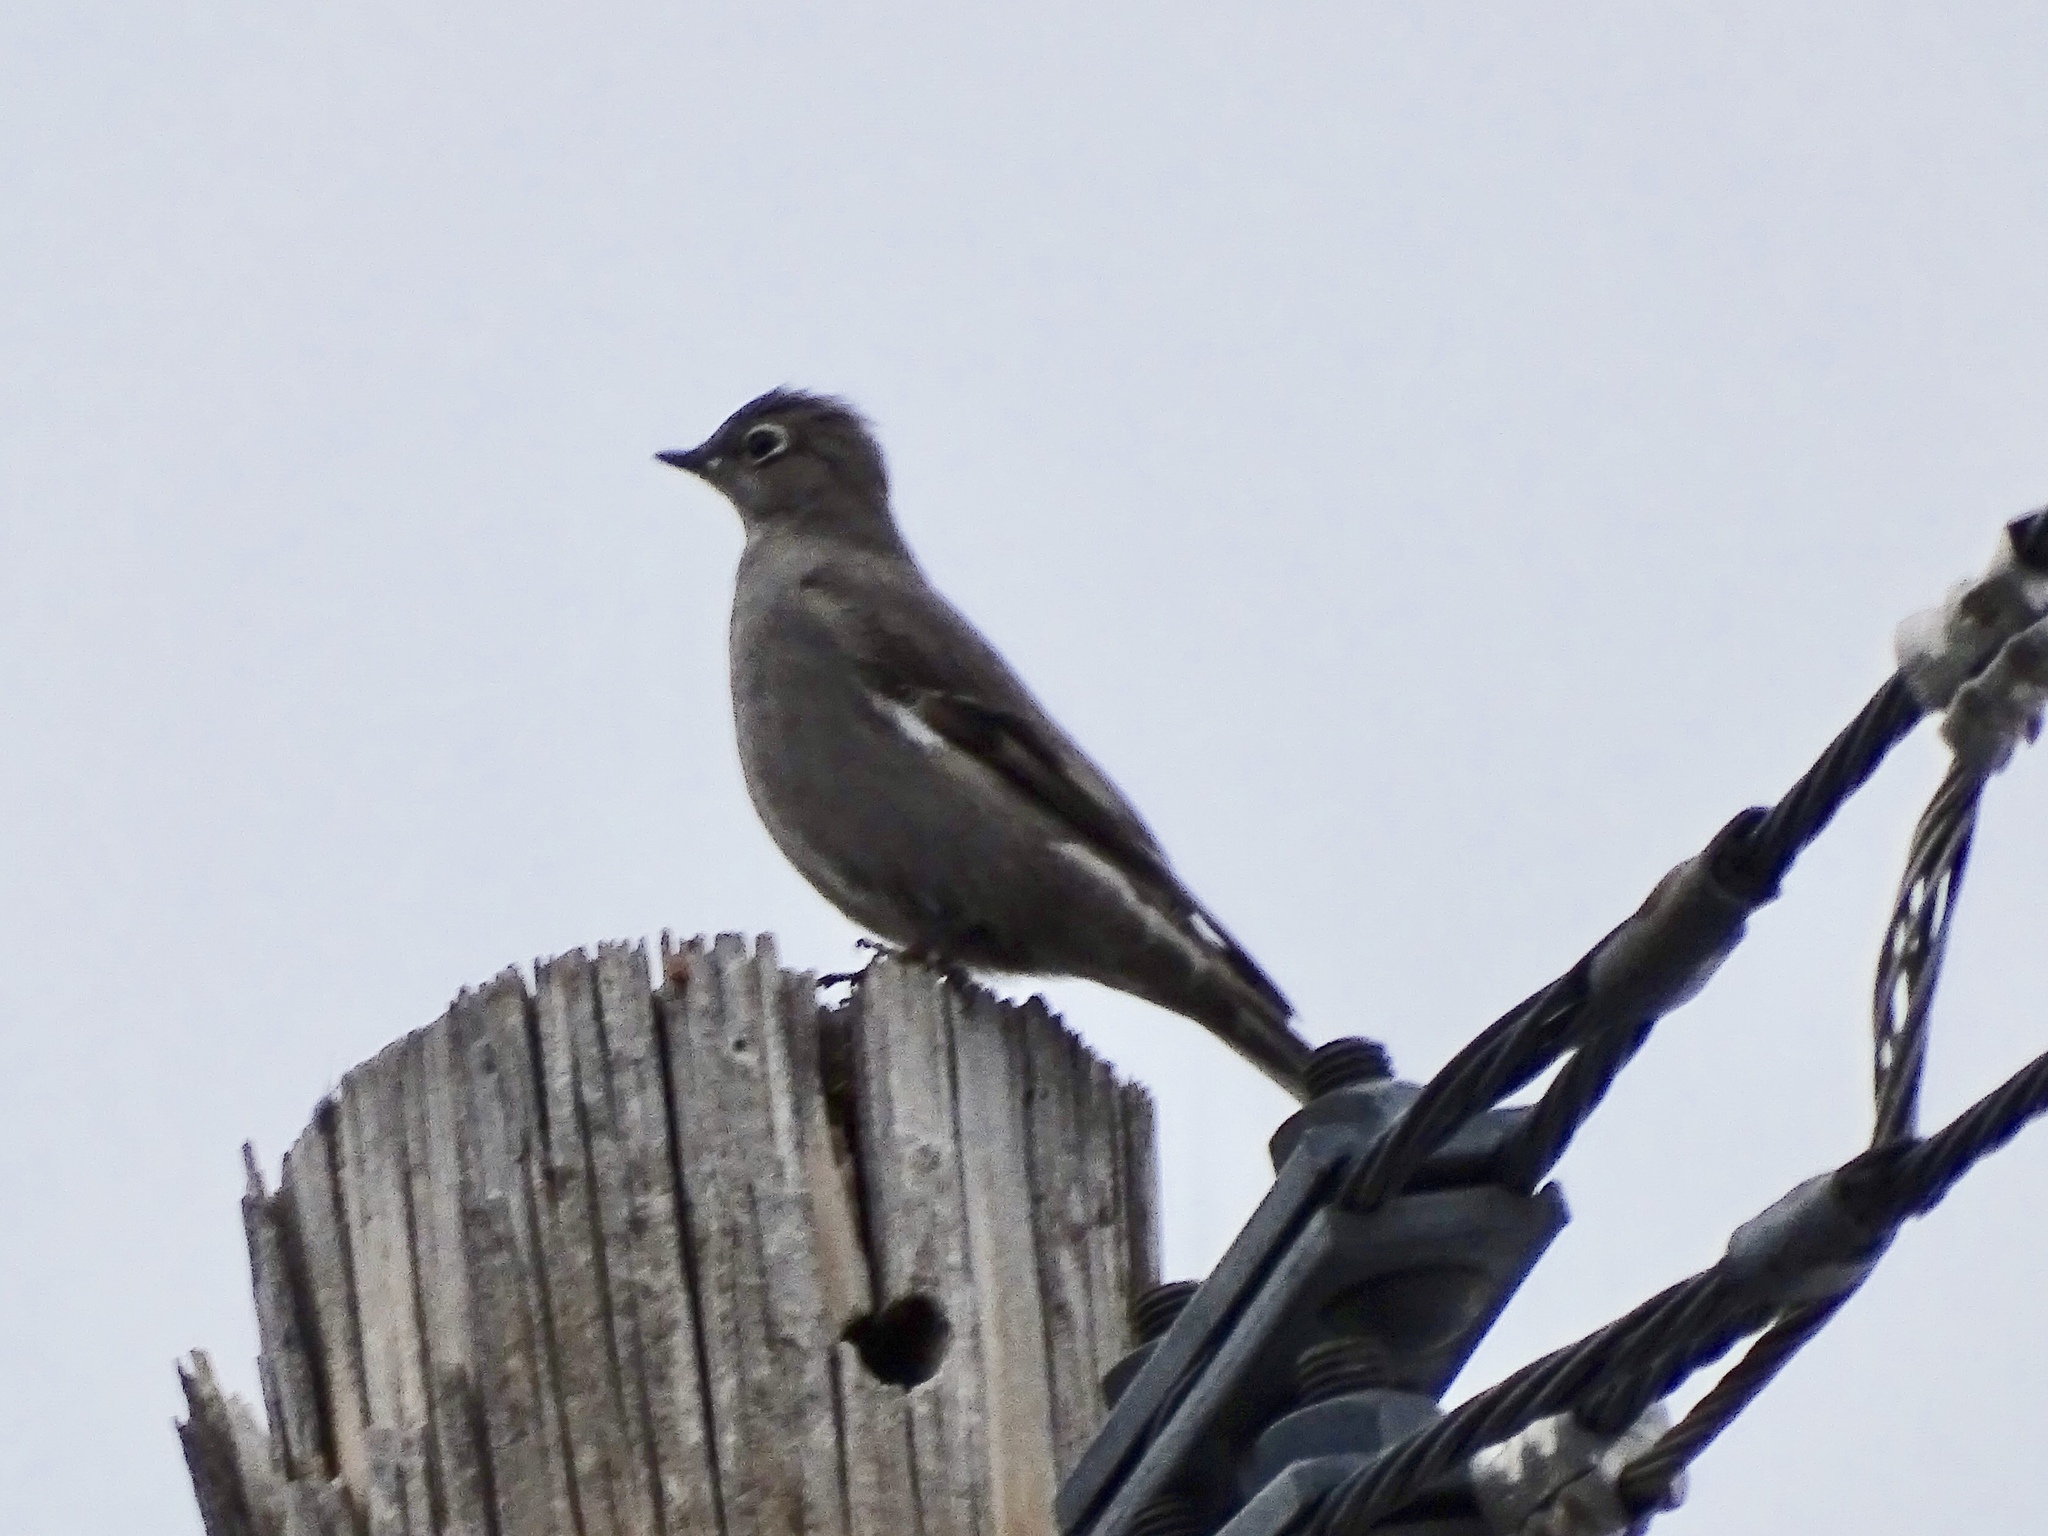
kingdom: Animalia
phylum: Chordata
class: Aves
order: Passeriformes
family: Turdidae
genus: Myadestes
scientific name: Myadestes townsendi
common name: Townsend's solitaire
